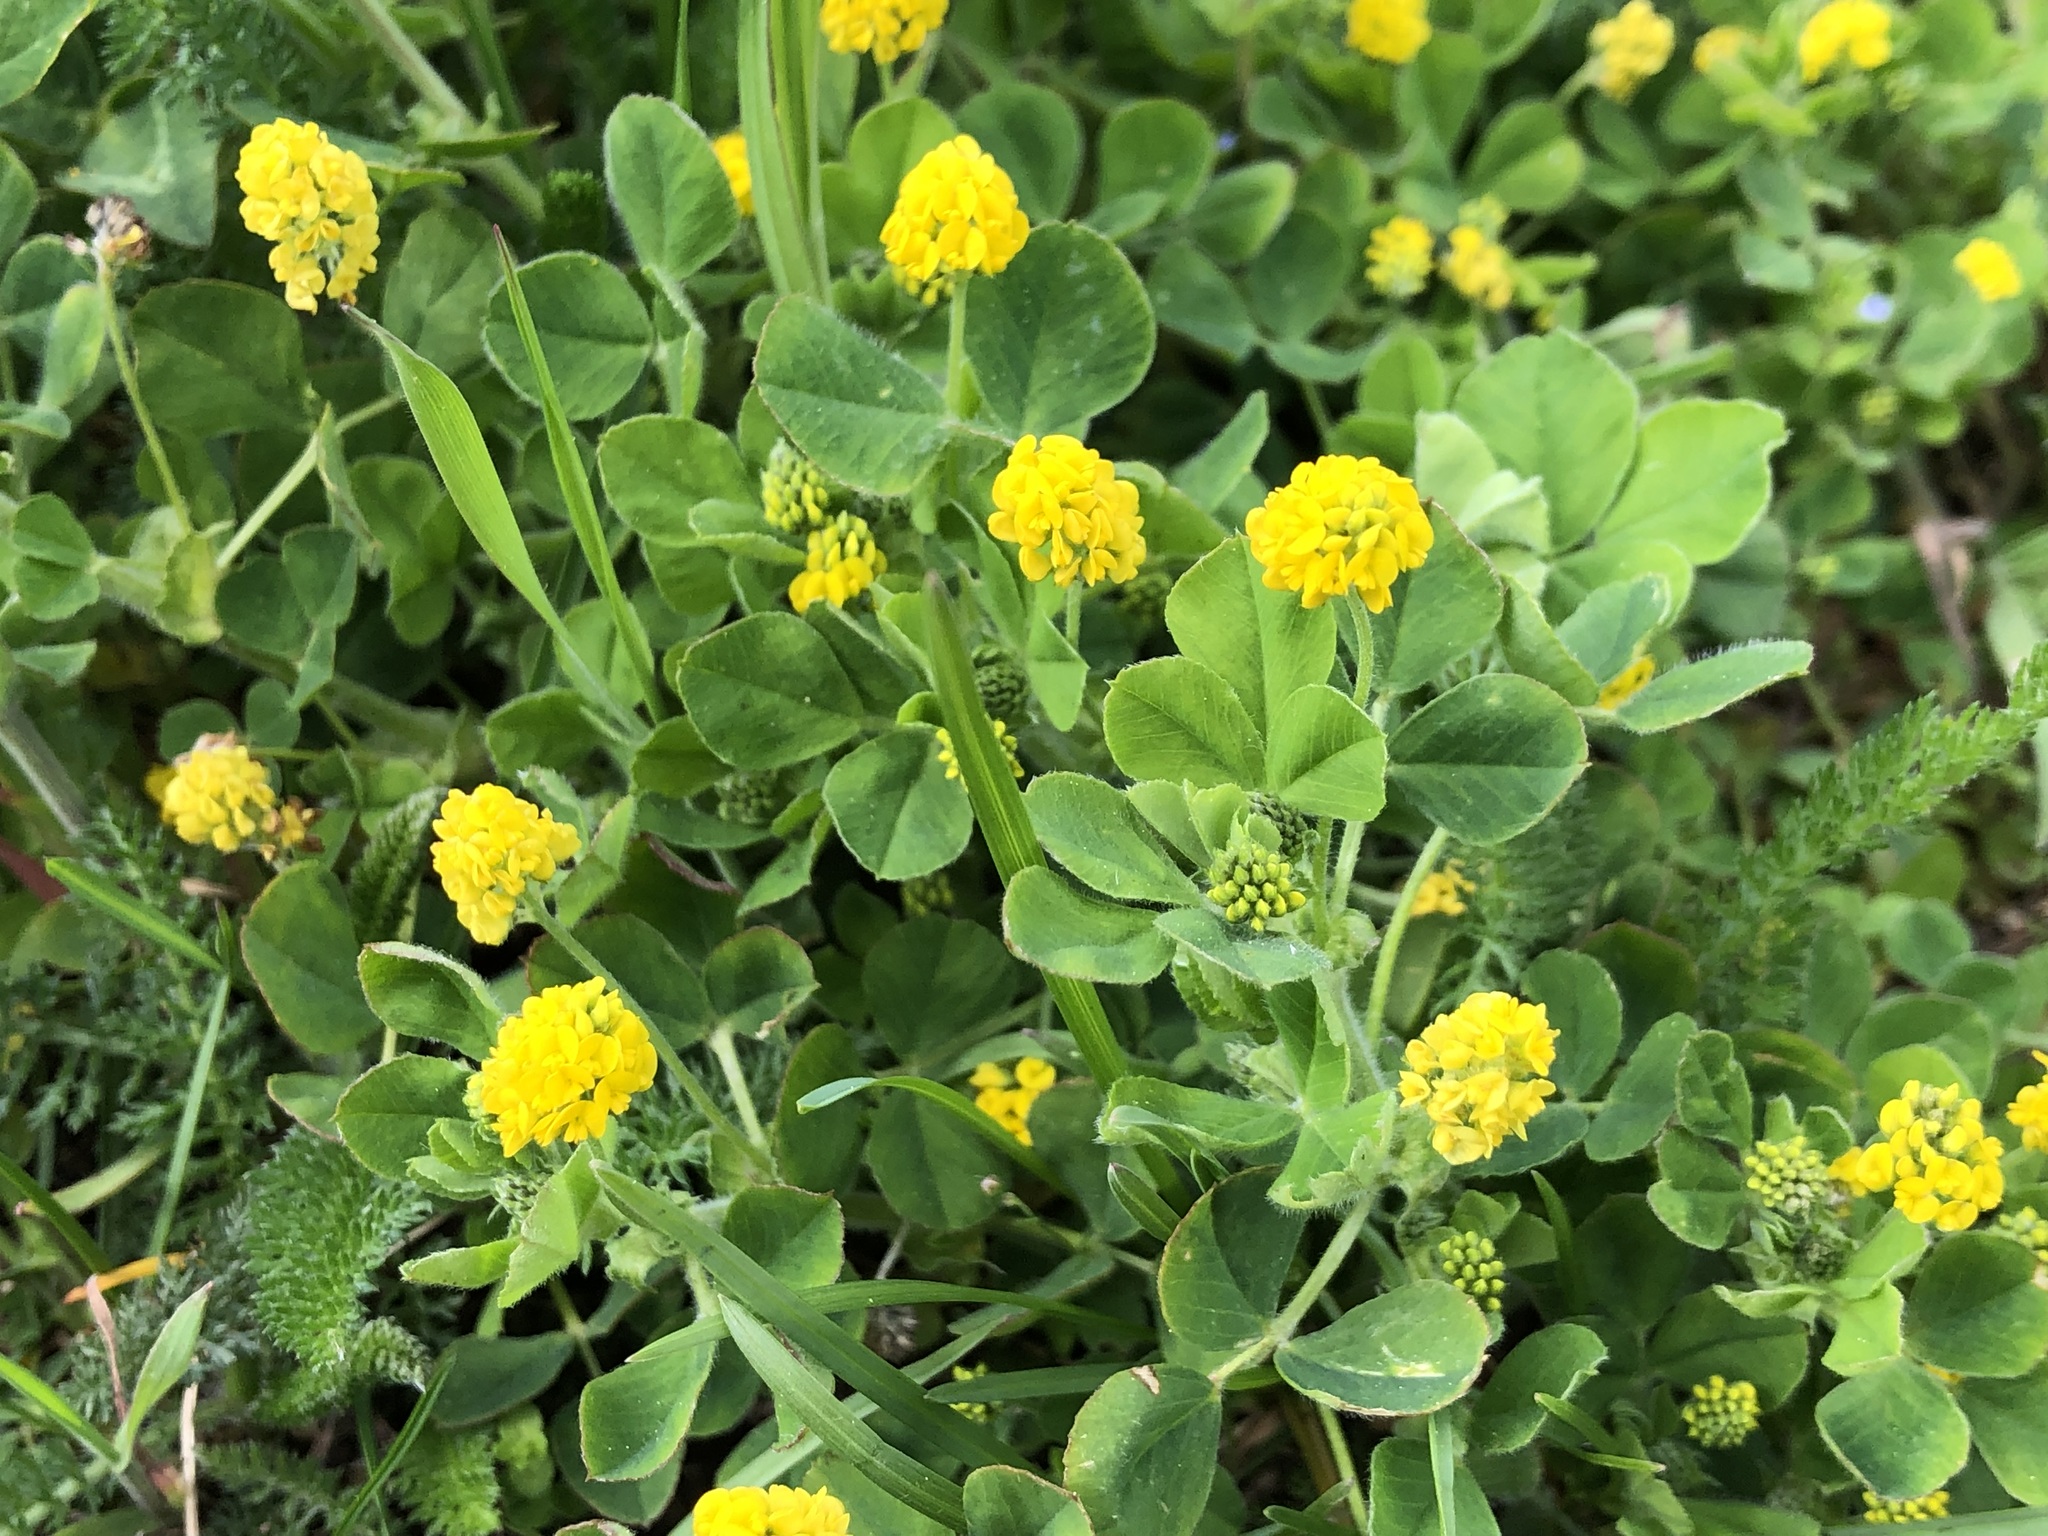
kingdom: Plantae
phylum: Tracheophyta
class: Magnoliopsida
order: Fabales
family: Fabaceae
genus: Medicago
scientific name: Medicago lupulina
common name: Black medick
